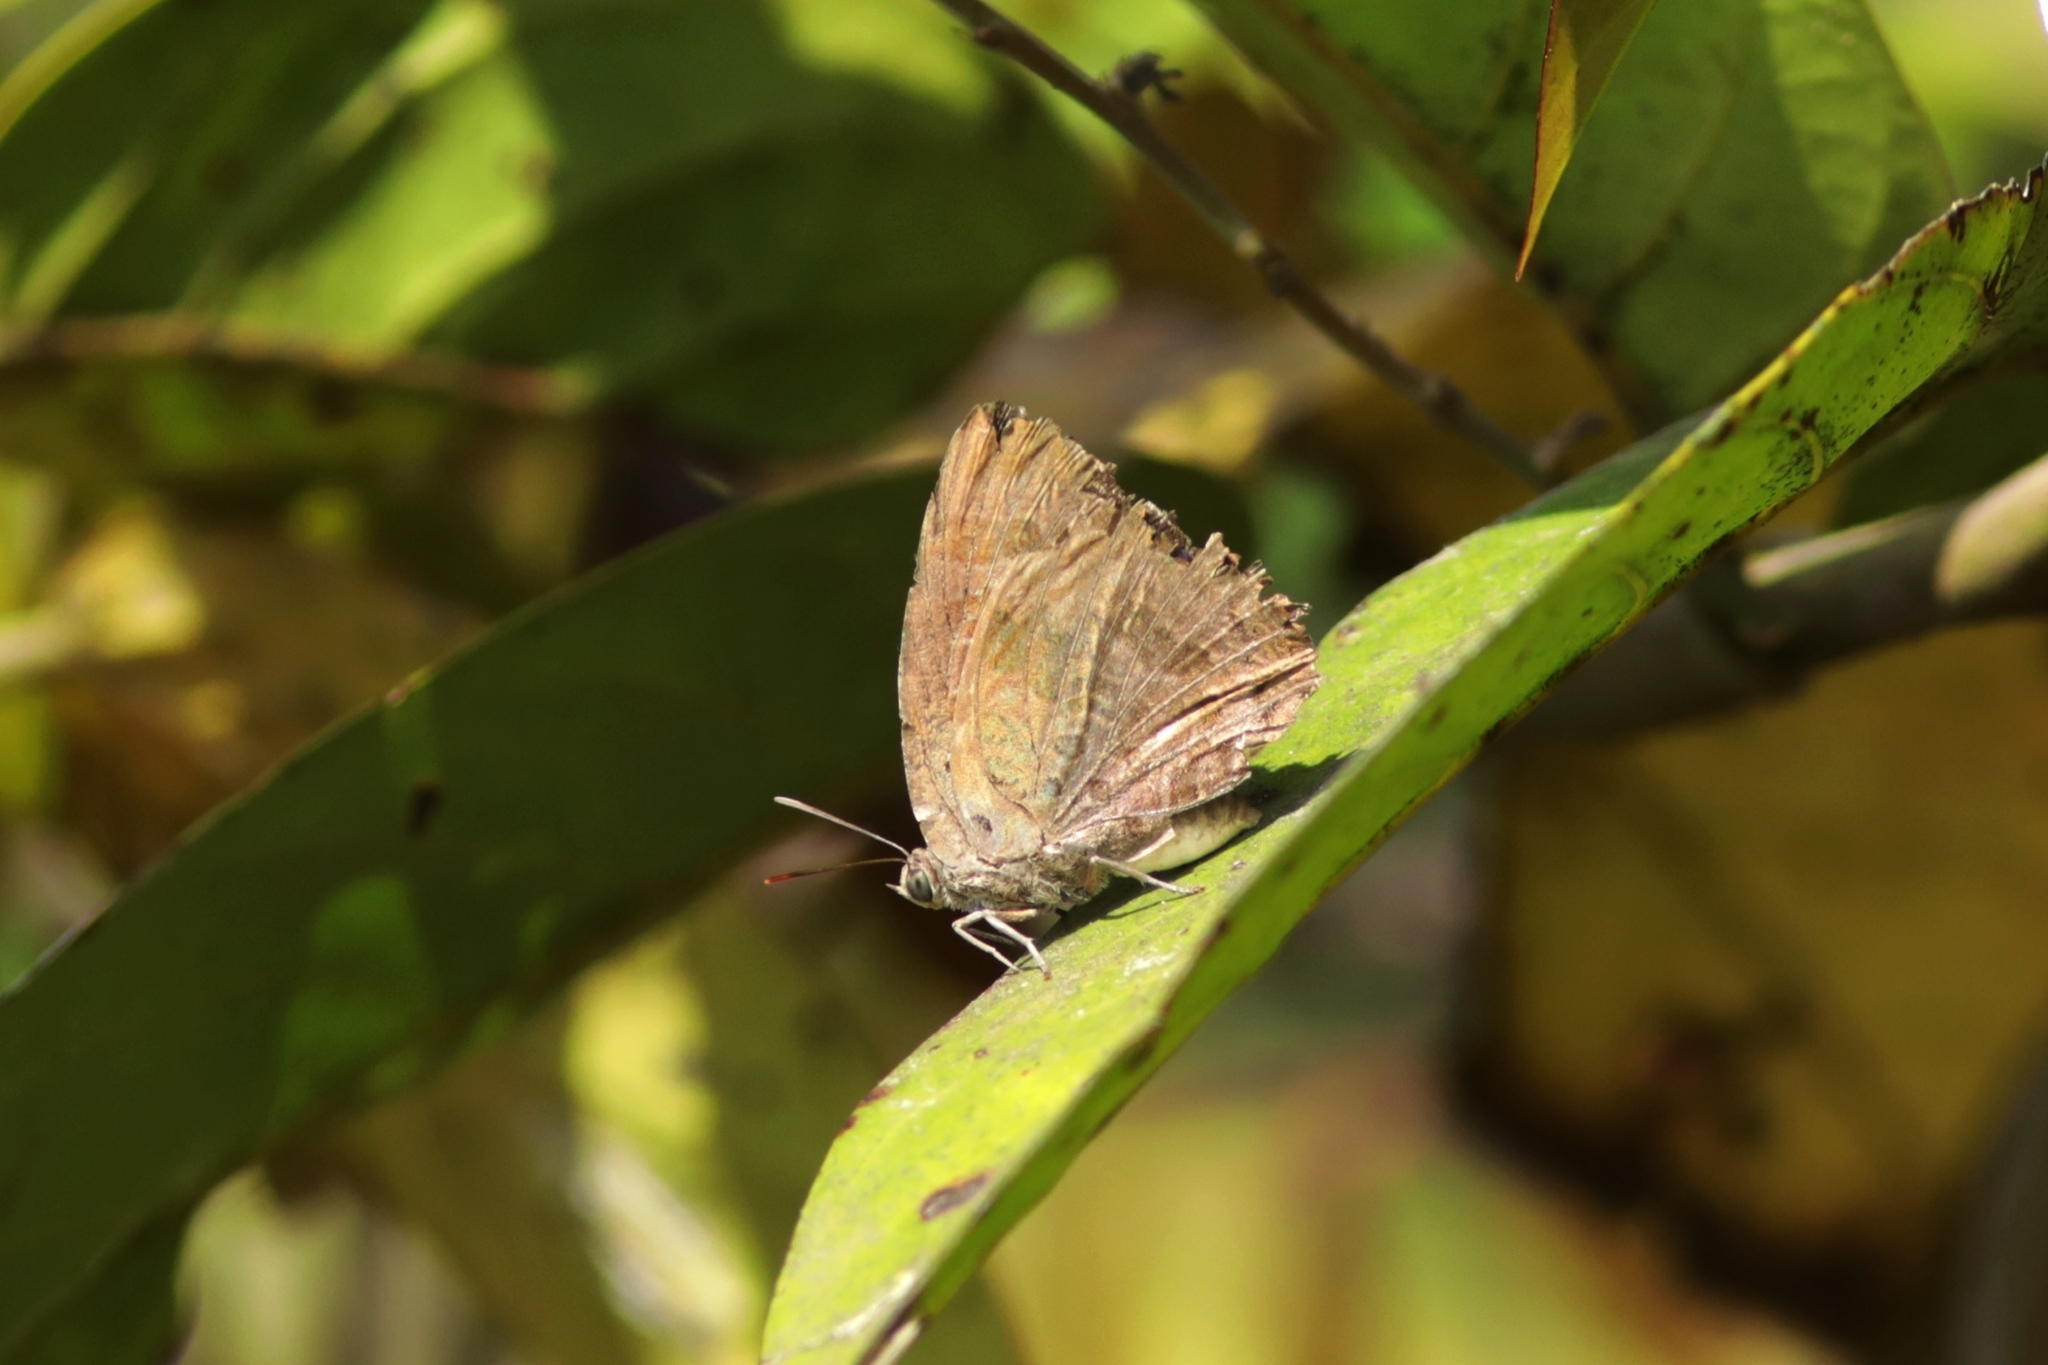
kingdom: Animalia
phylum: Arthropoda
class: Insecta
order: Lepidoptera
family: Lycaenidae
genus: Arhopala
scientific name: Arhopala amantes
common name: Large oakblue
